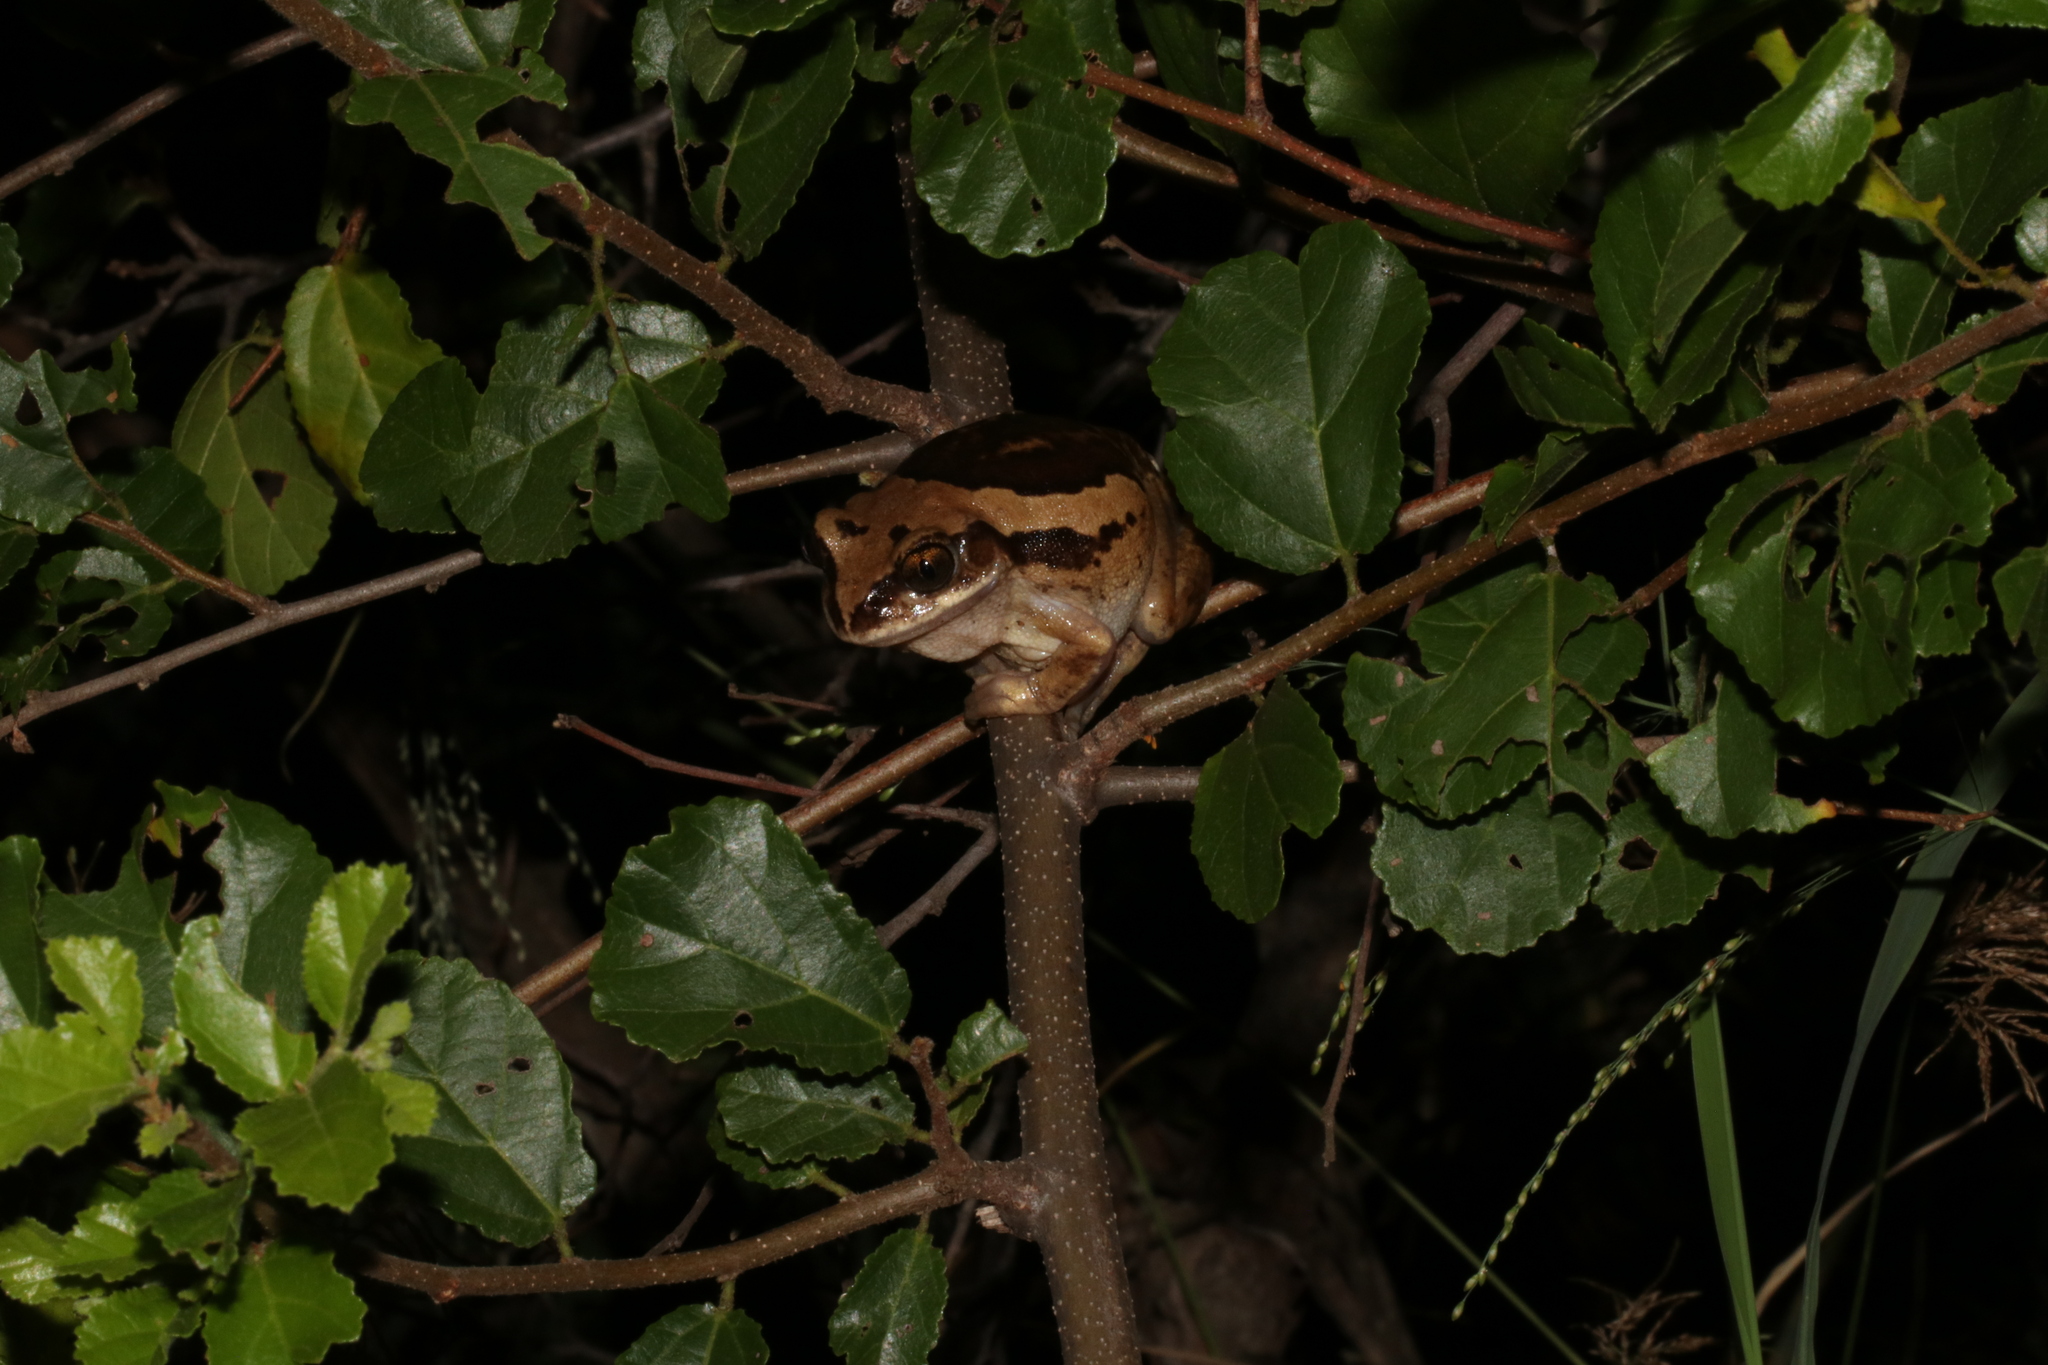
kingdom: Animalia
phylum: Chordata
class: Amphibia
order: Anura
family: Arthroleptidae
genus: Leptopelis
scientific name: Leptopelis mossambicus
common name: Mozambique tree frog
